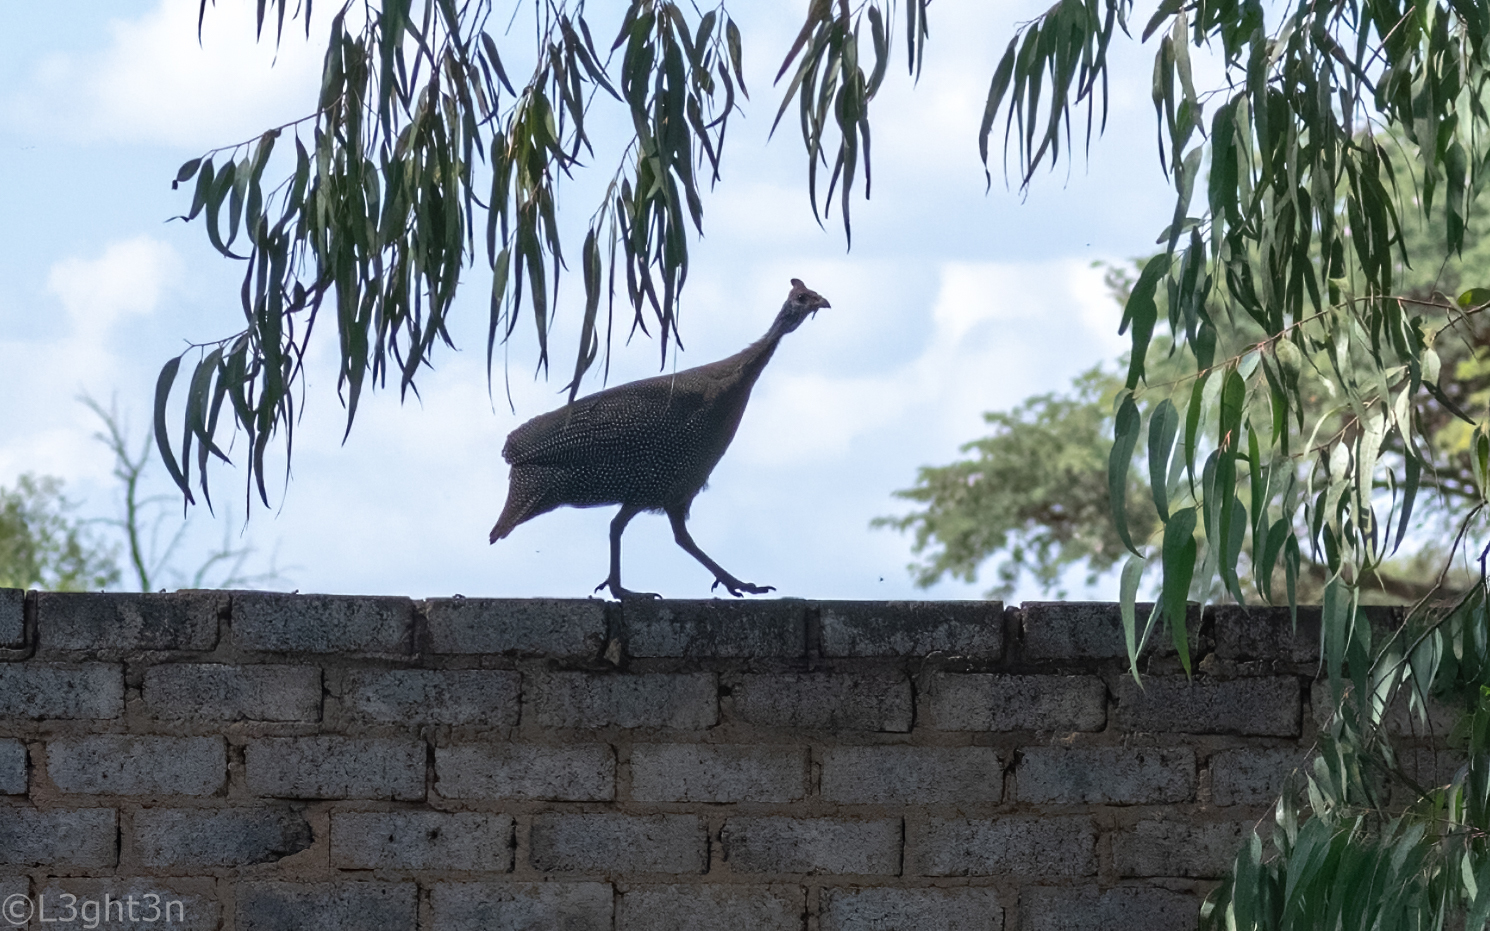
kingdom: Animalia
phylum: Chordata
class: Aves
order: Galliformes
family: Numididae
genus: Numida
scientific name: Numida meleagris
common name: Helmeted guineafowl
